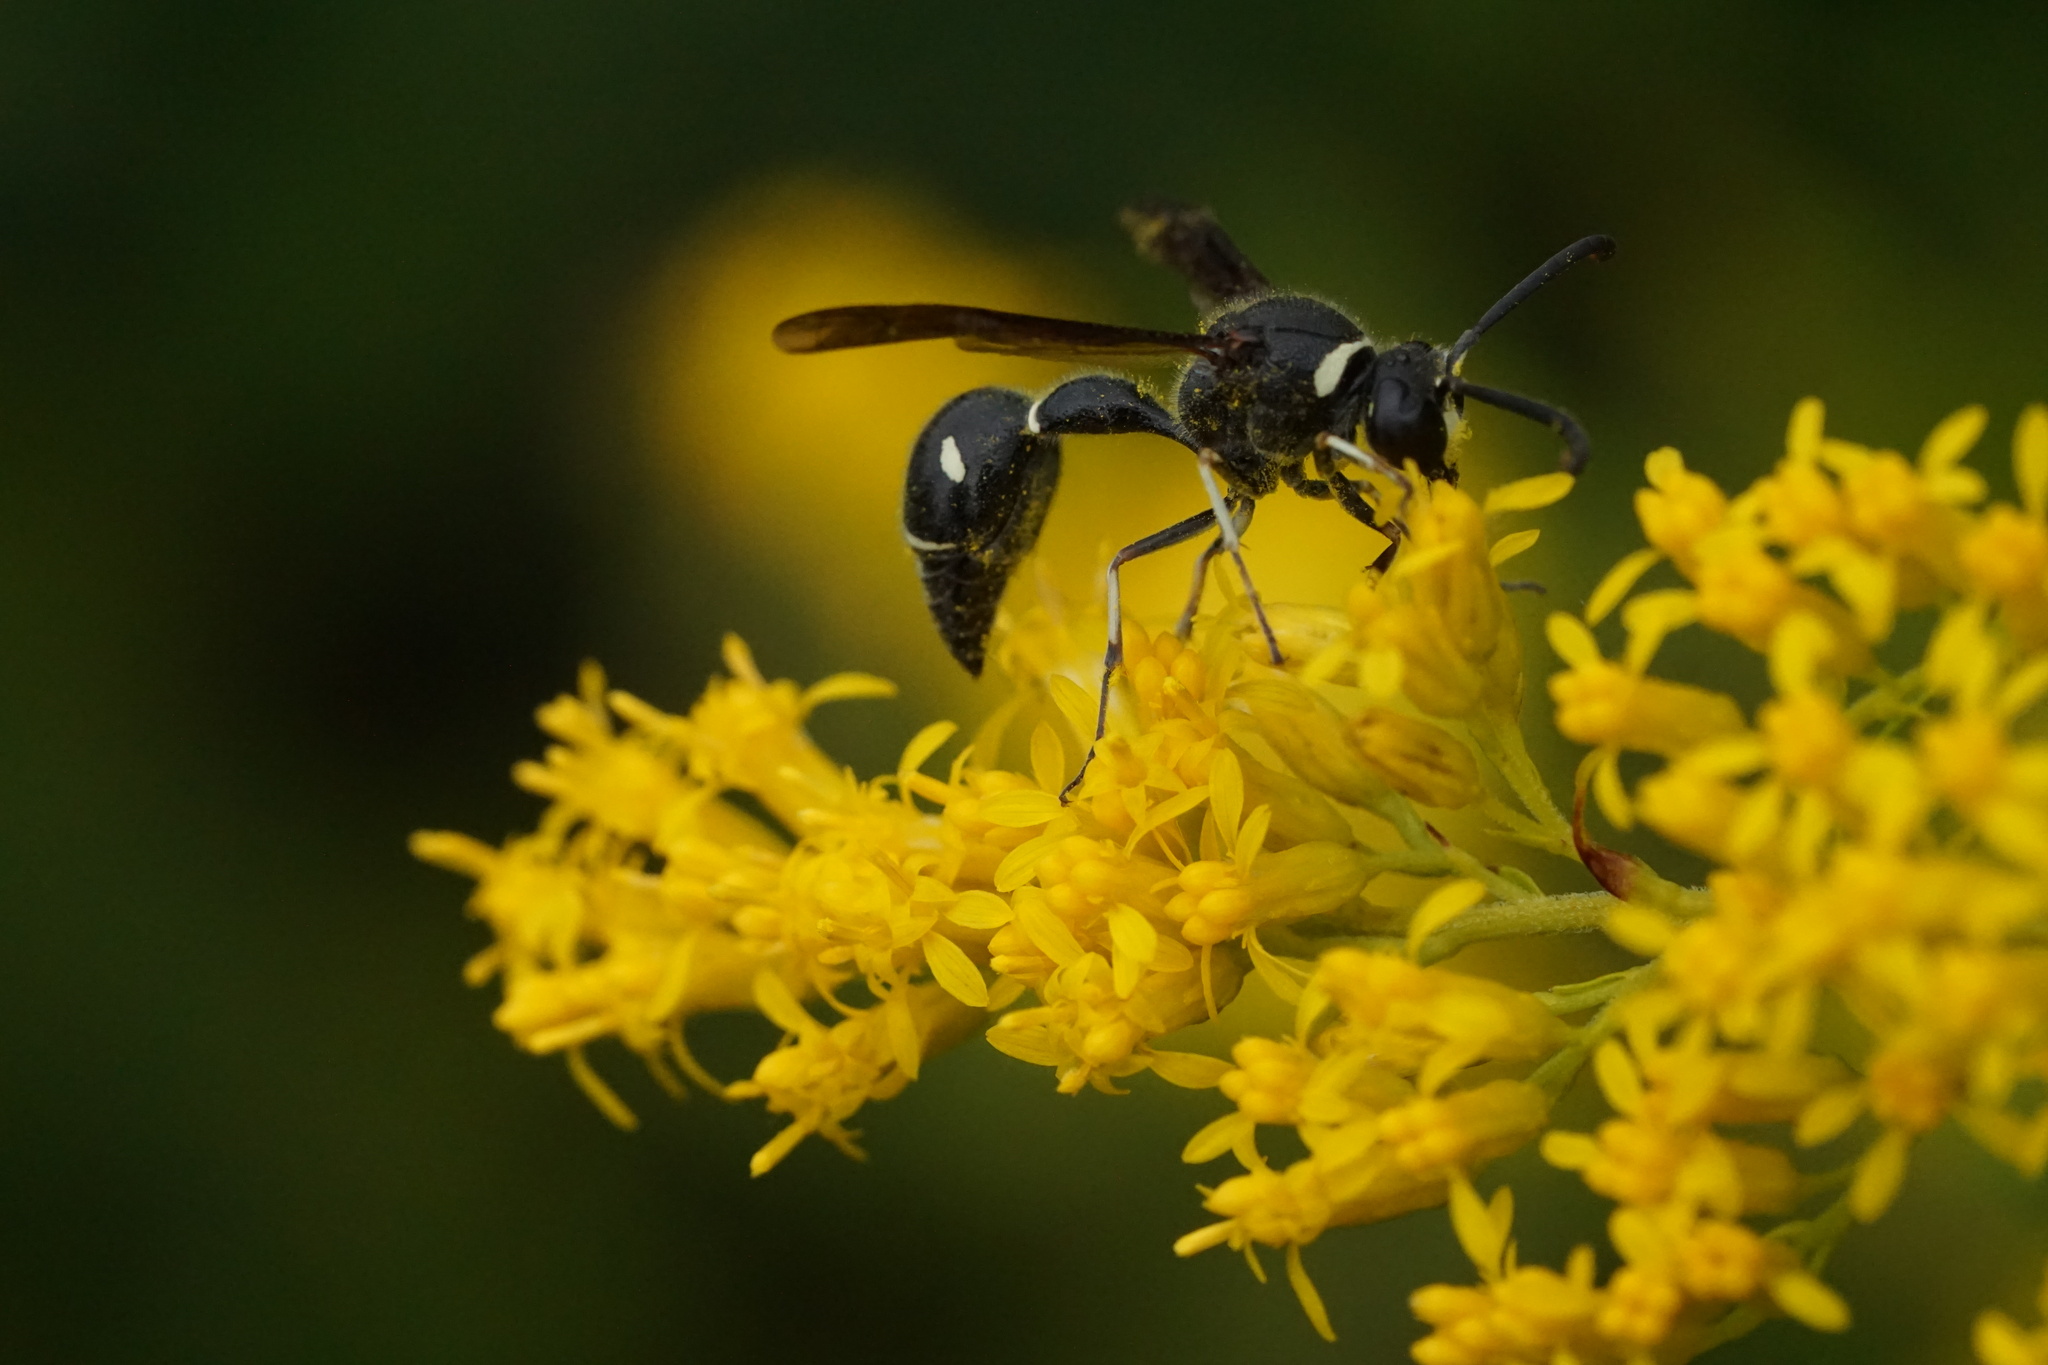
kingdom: Animalia
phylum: Arthropoda
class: Insecta
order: Hymenoptera
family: Vespidae
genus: Eumenes
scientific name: Eumenes fraternus
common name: Fraternal potter wasp
